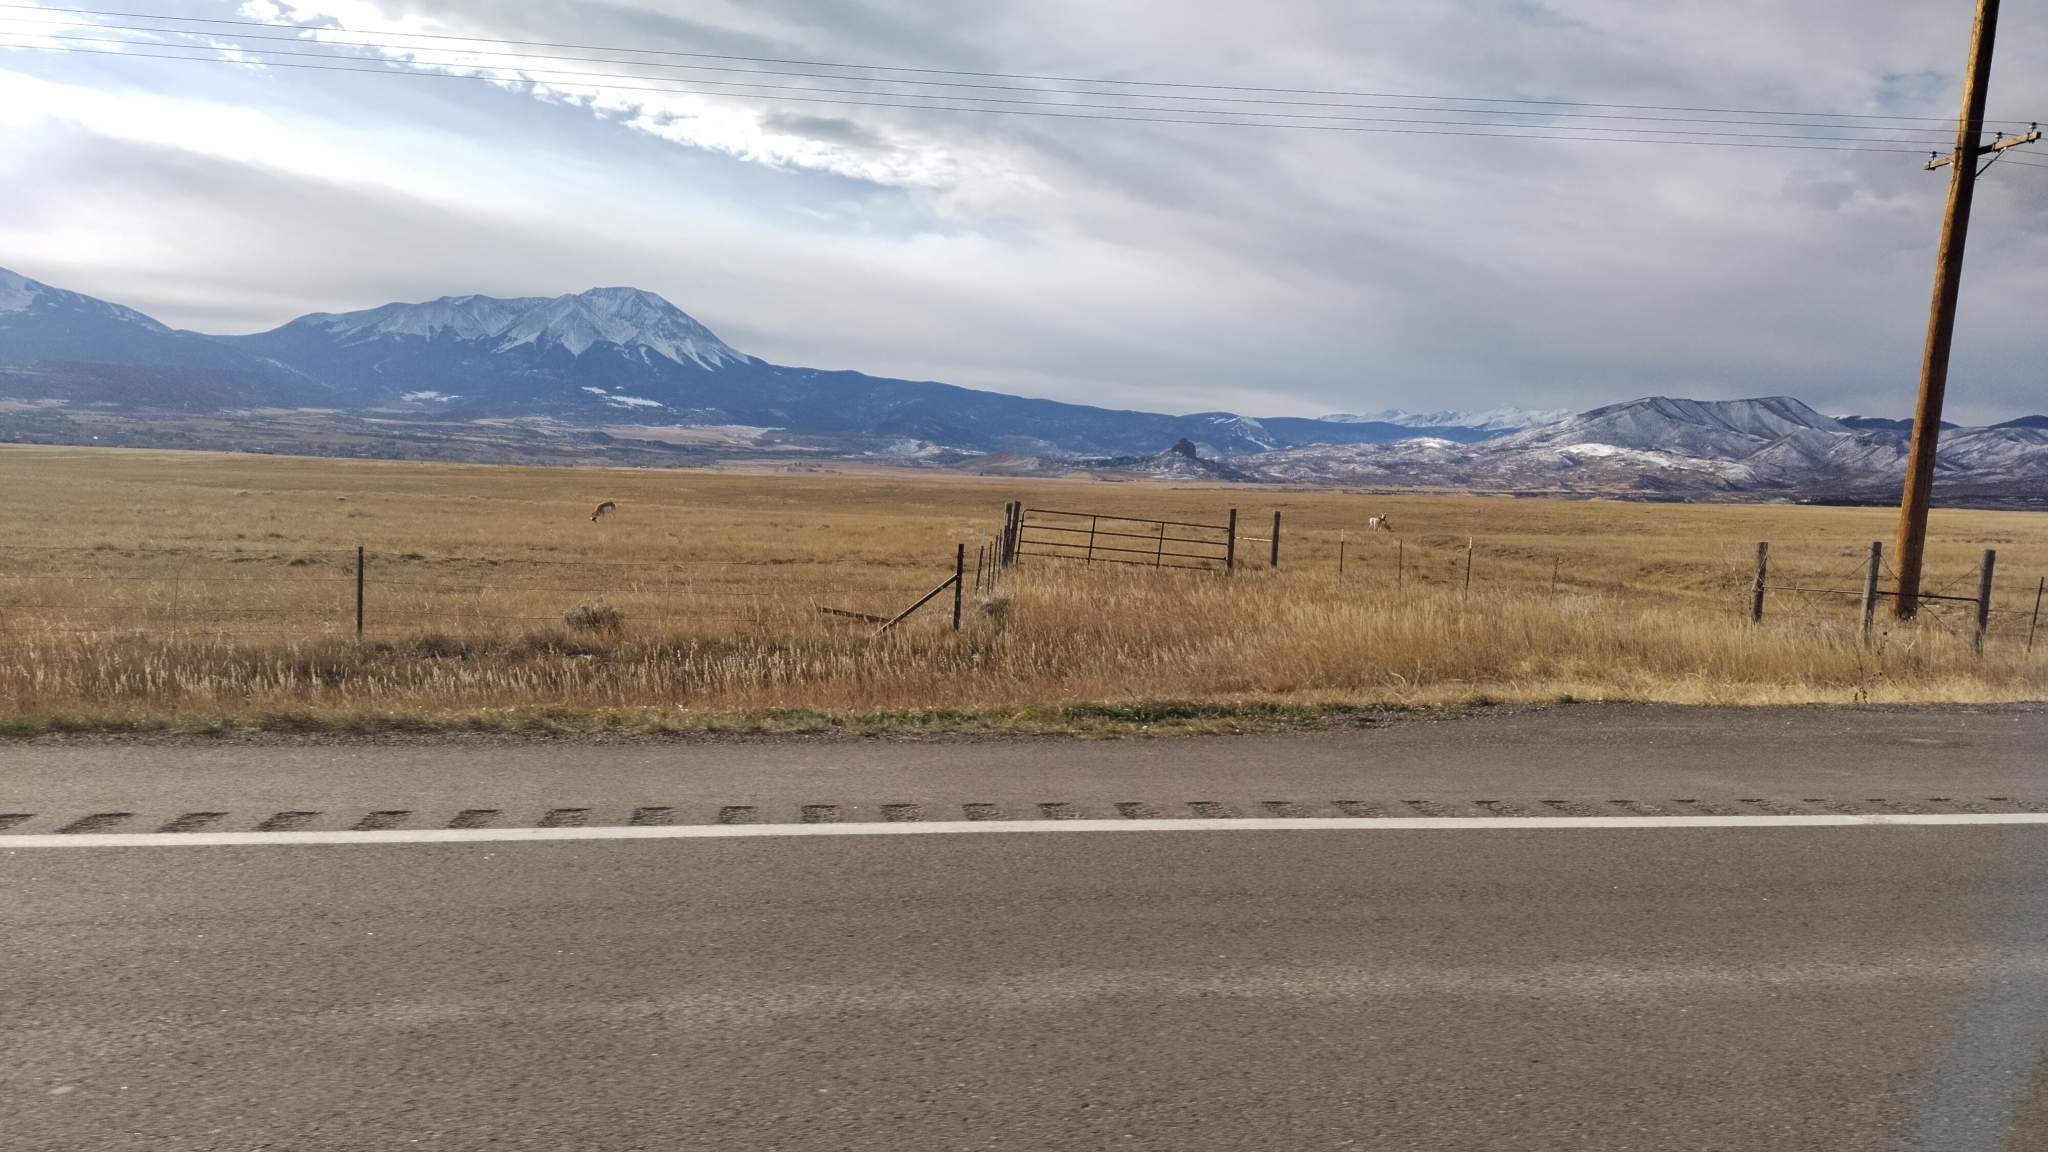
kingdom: Animalia
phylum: Chordata
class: Mammalia
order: Artiodactyla
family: Antilocapridae
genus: Antilocapra
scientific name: Antilocapra americana
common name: Pronghorn
